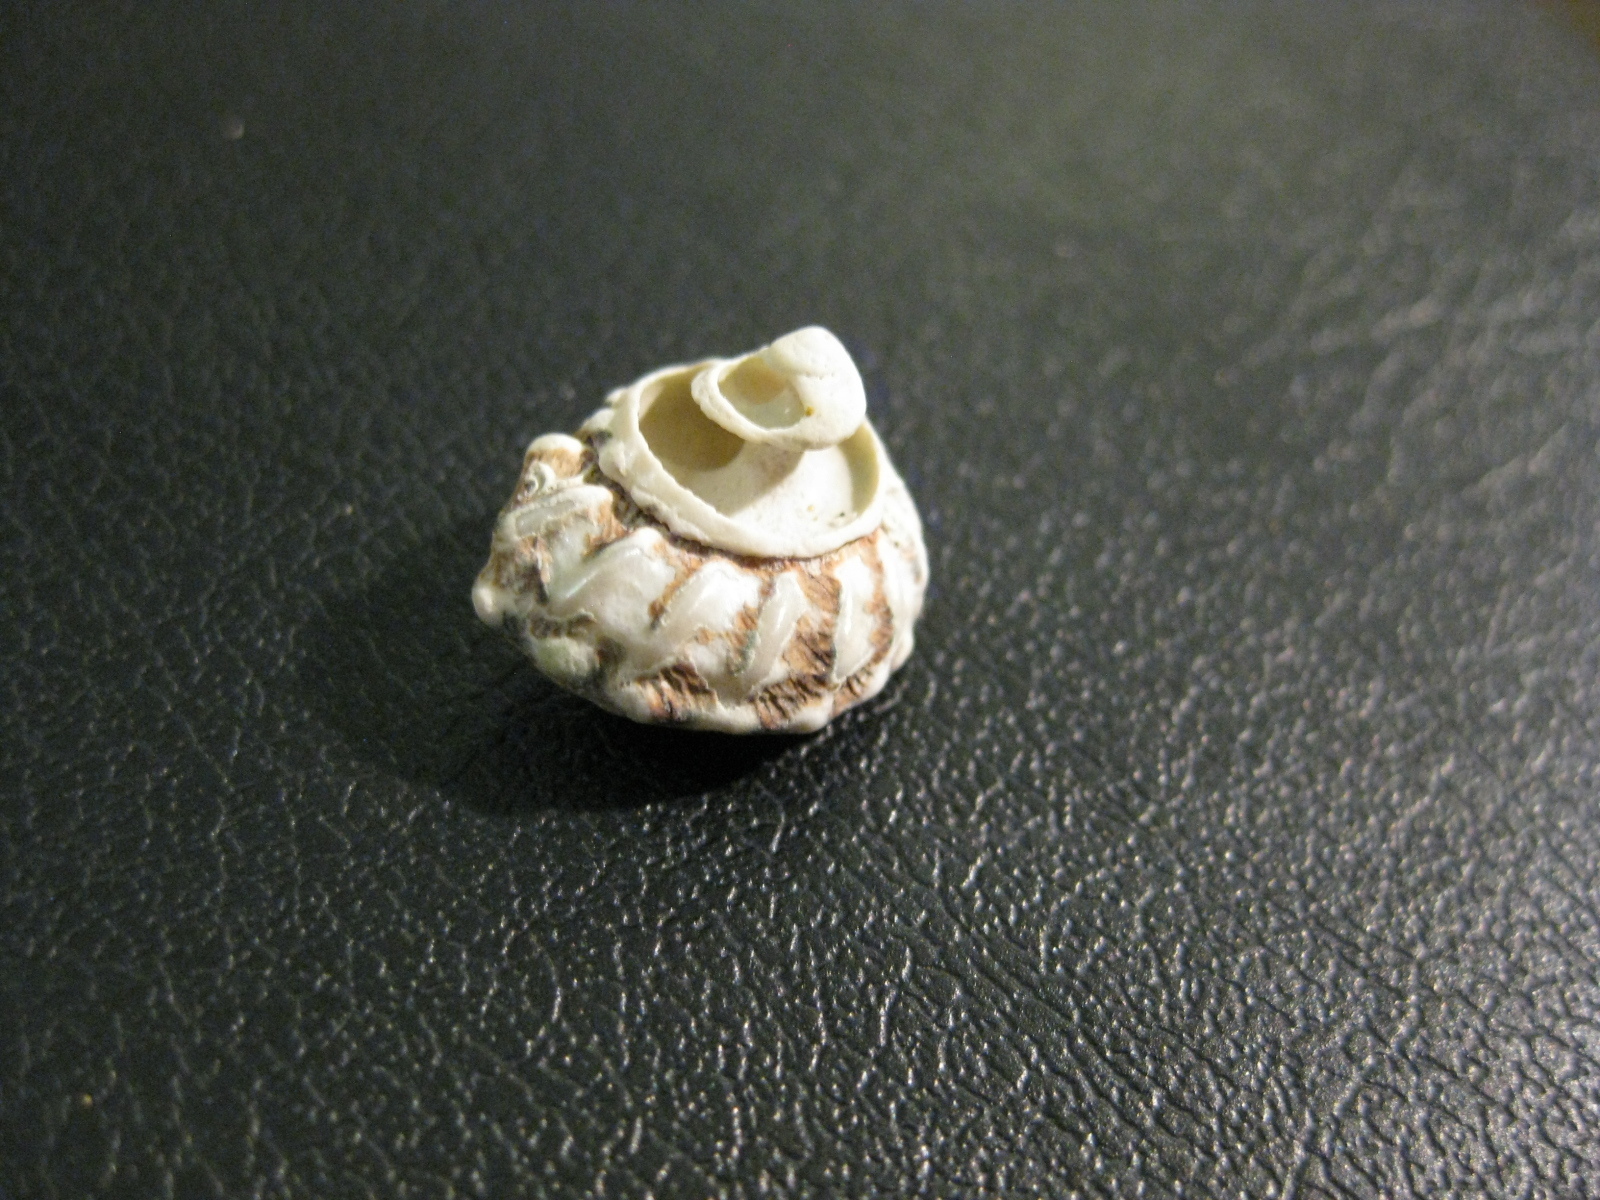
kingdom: Animalia
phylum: Mollusca
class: Gastropoda
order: Trochida
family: Turbinidae
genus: Cookia
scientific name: Cookia sulcata
